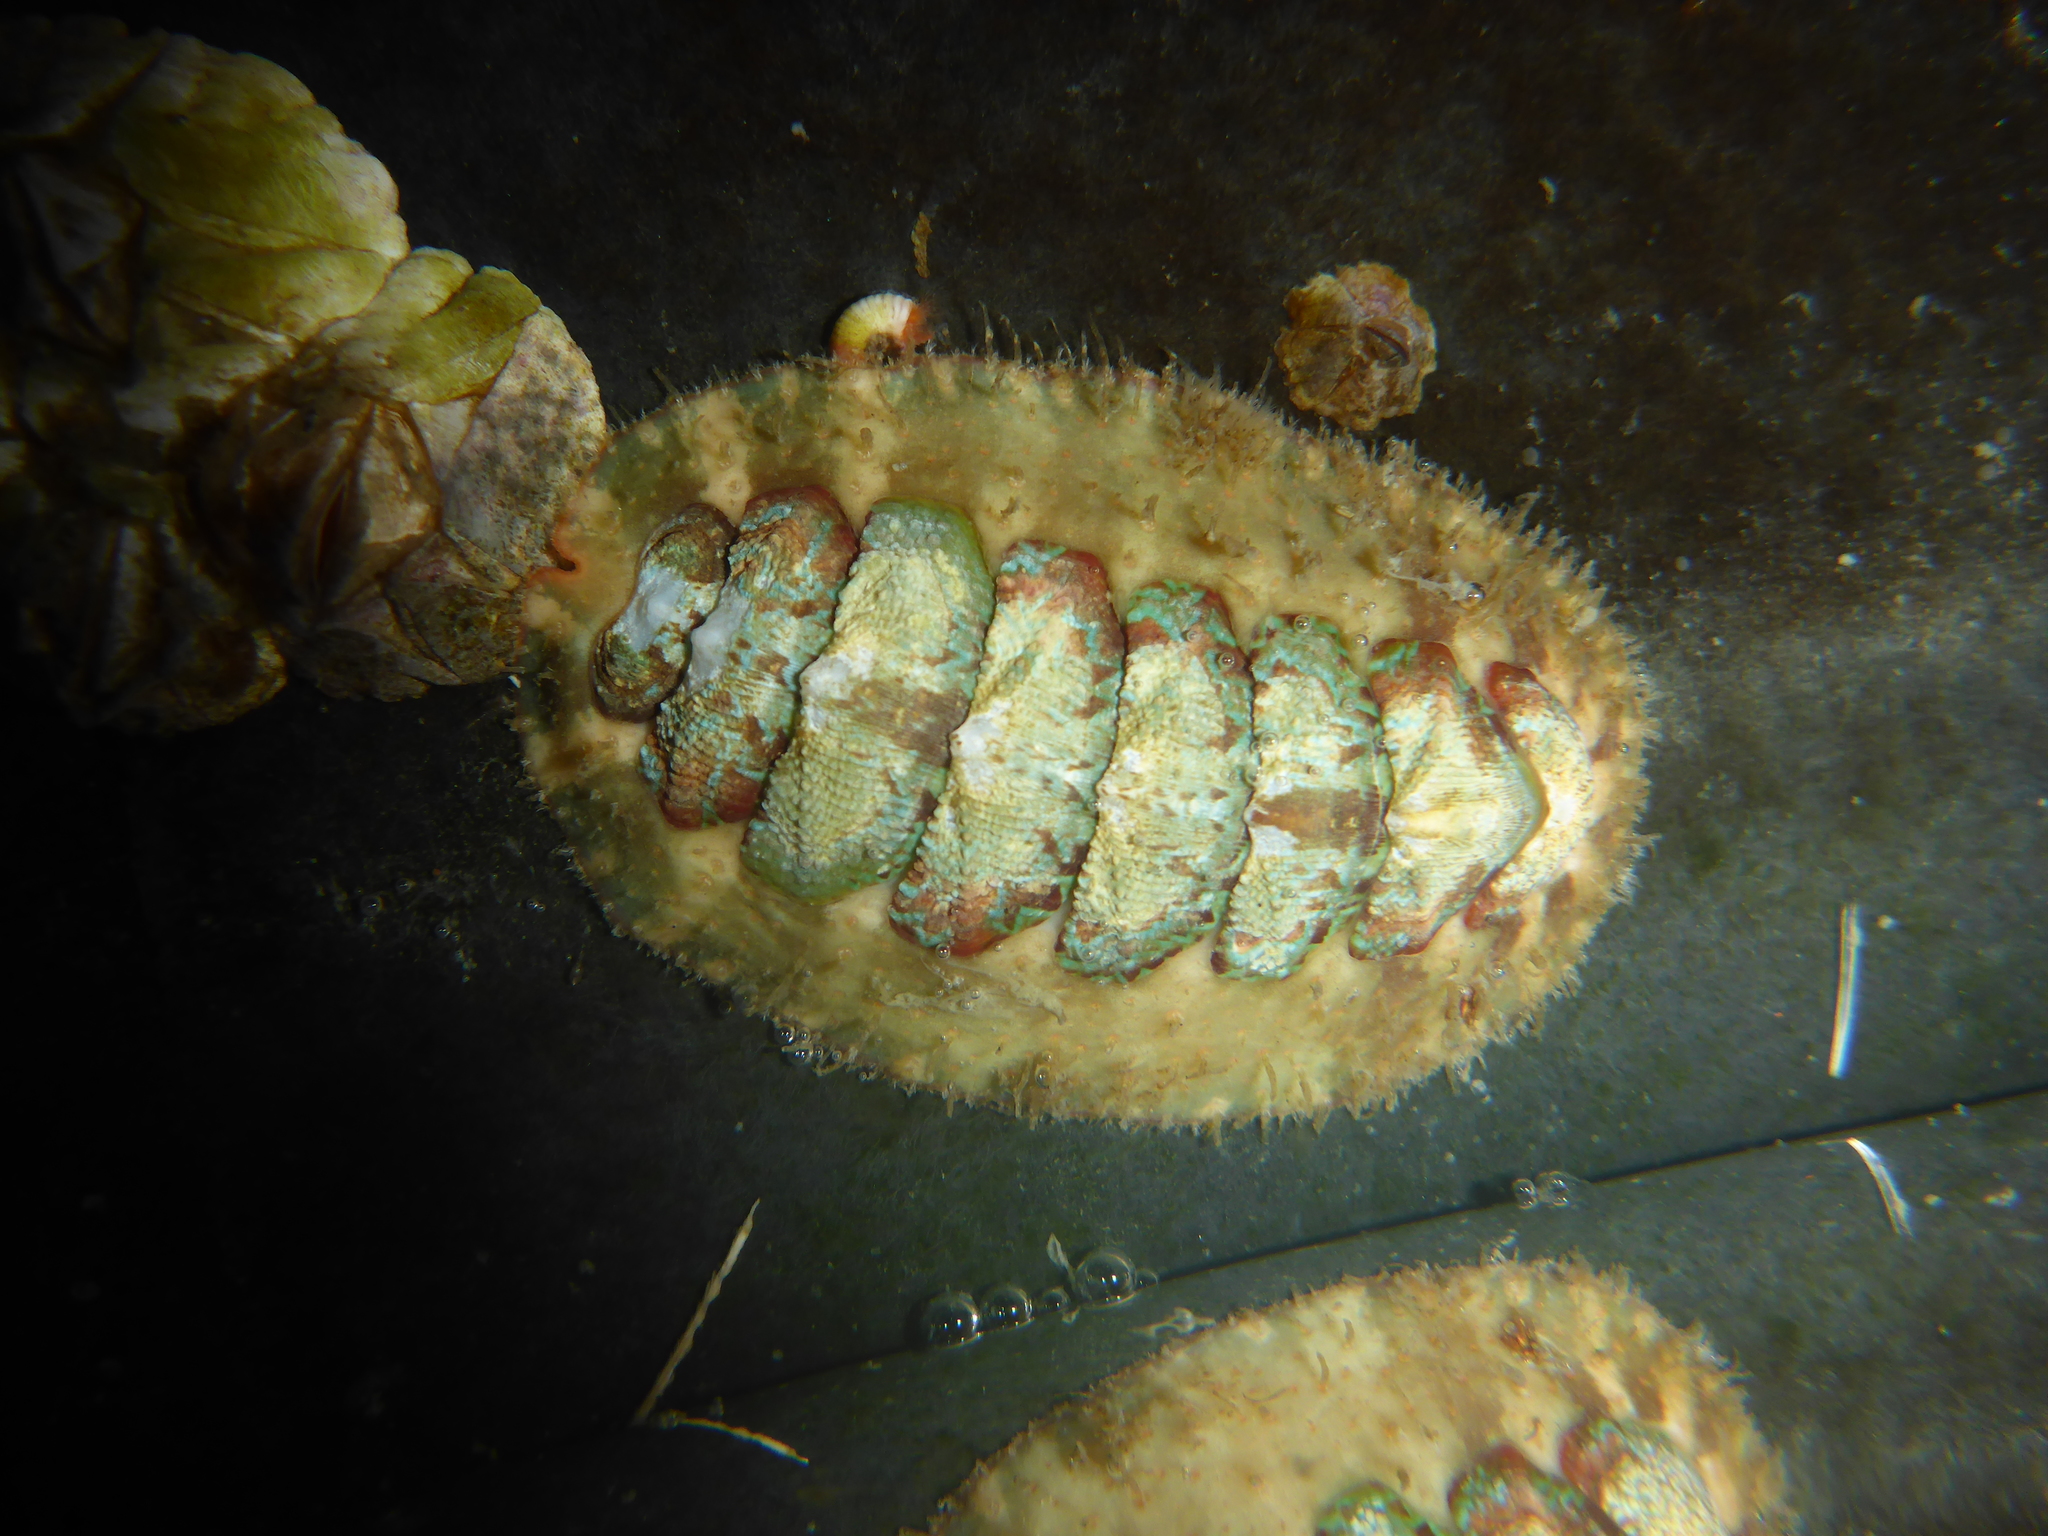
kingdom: Animalia
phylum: Mollusca
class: Polyplacophora
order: Chitonida
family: Mopaliidae
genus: Mopalia
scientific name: Mopalia spectabilis
